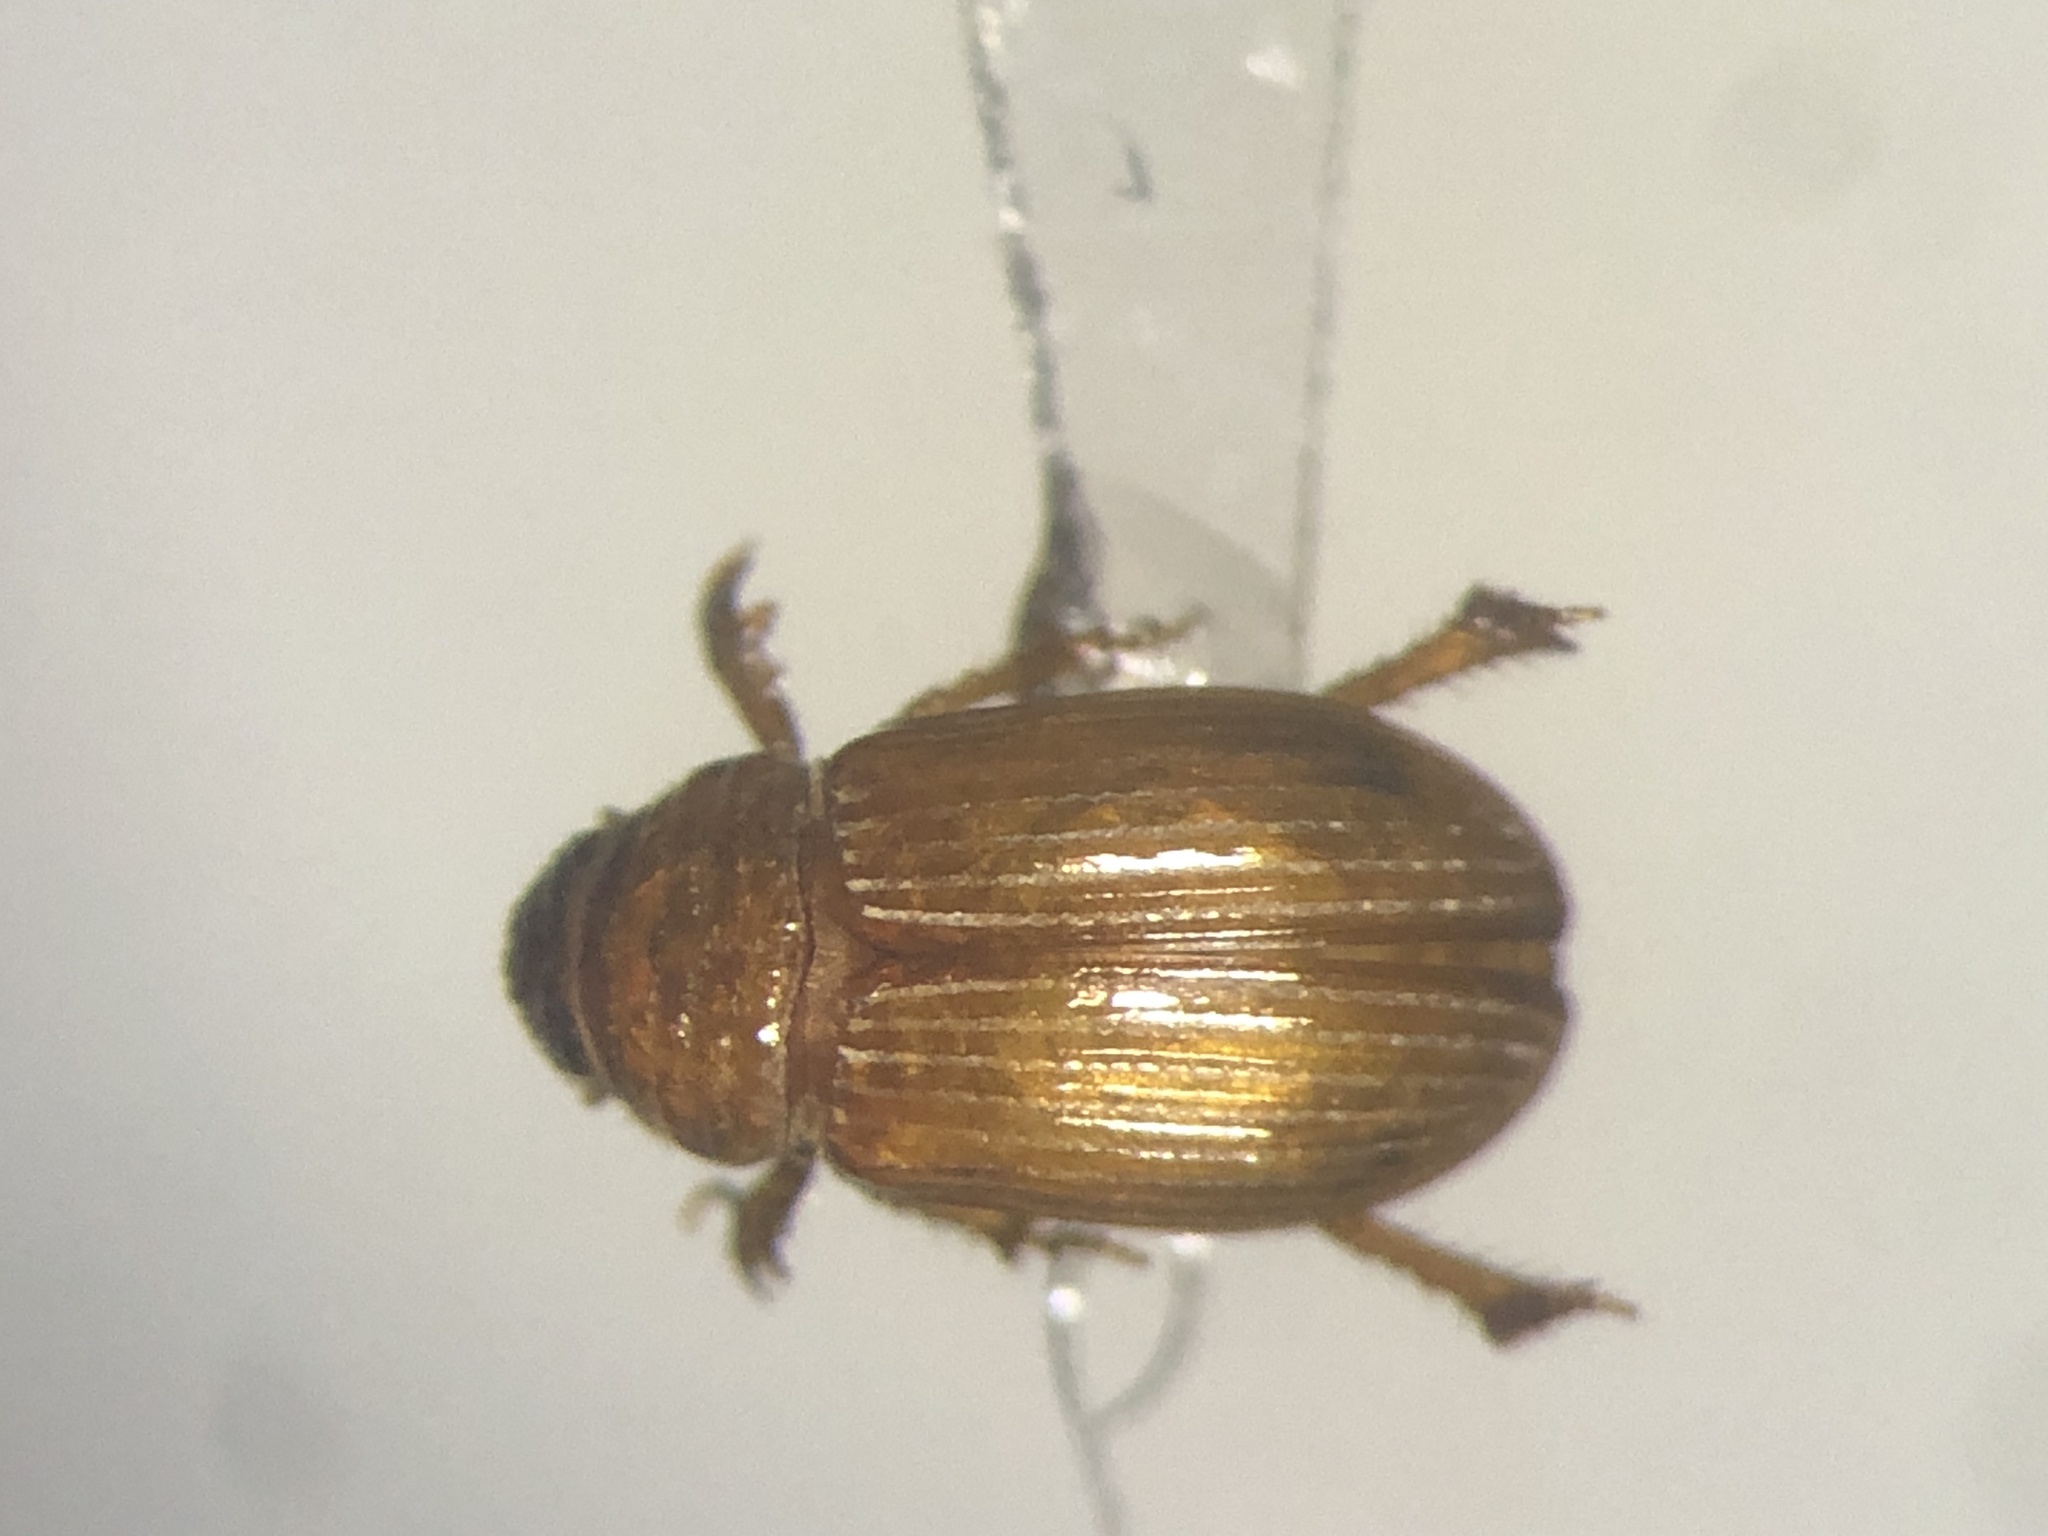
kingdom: Animalia
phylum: Arthropoda
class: Insecta
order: Coleoptera
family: Scarabaeidae
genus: Psammodius
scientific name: Psammodius pierottii
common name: Pierotti's small dung beetle
